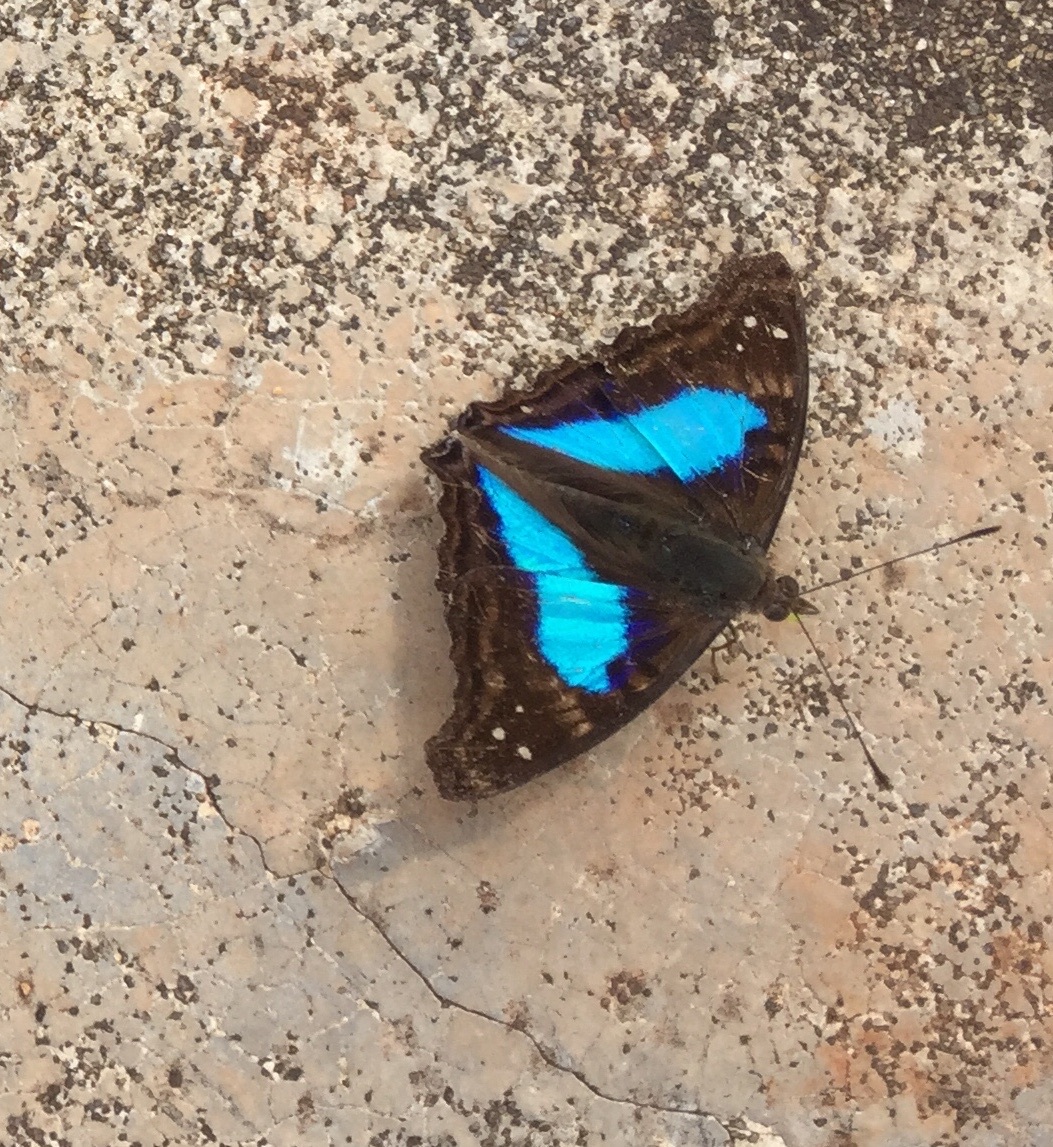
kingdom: Animalia
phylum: Arthropoda
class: Insecta
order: Lepidoptera
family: Nymphalidae
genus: Doxocopa
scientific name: Doxocopa laurentia
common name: Turquoise emperor
